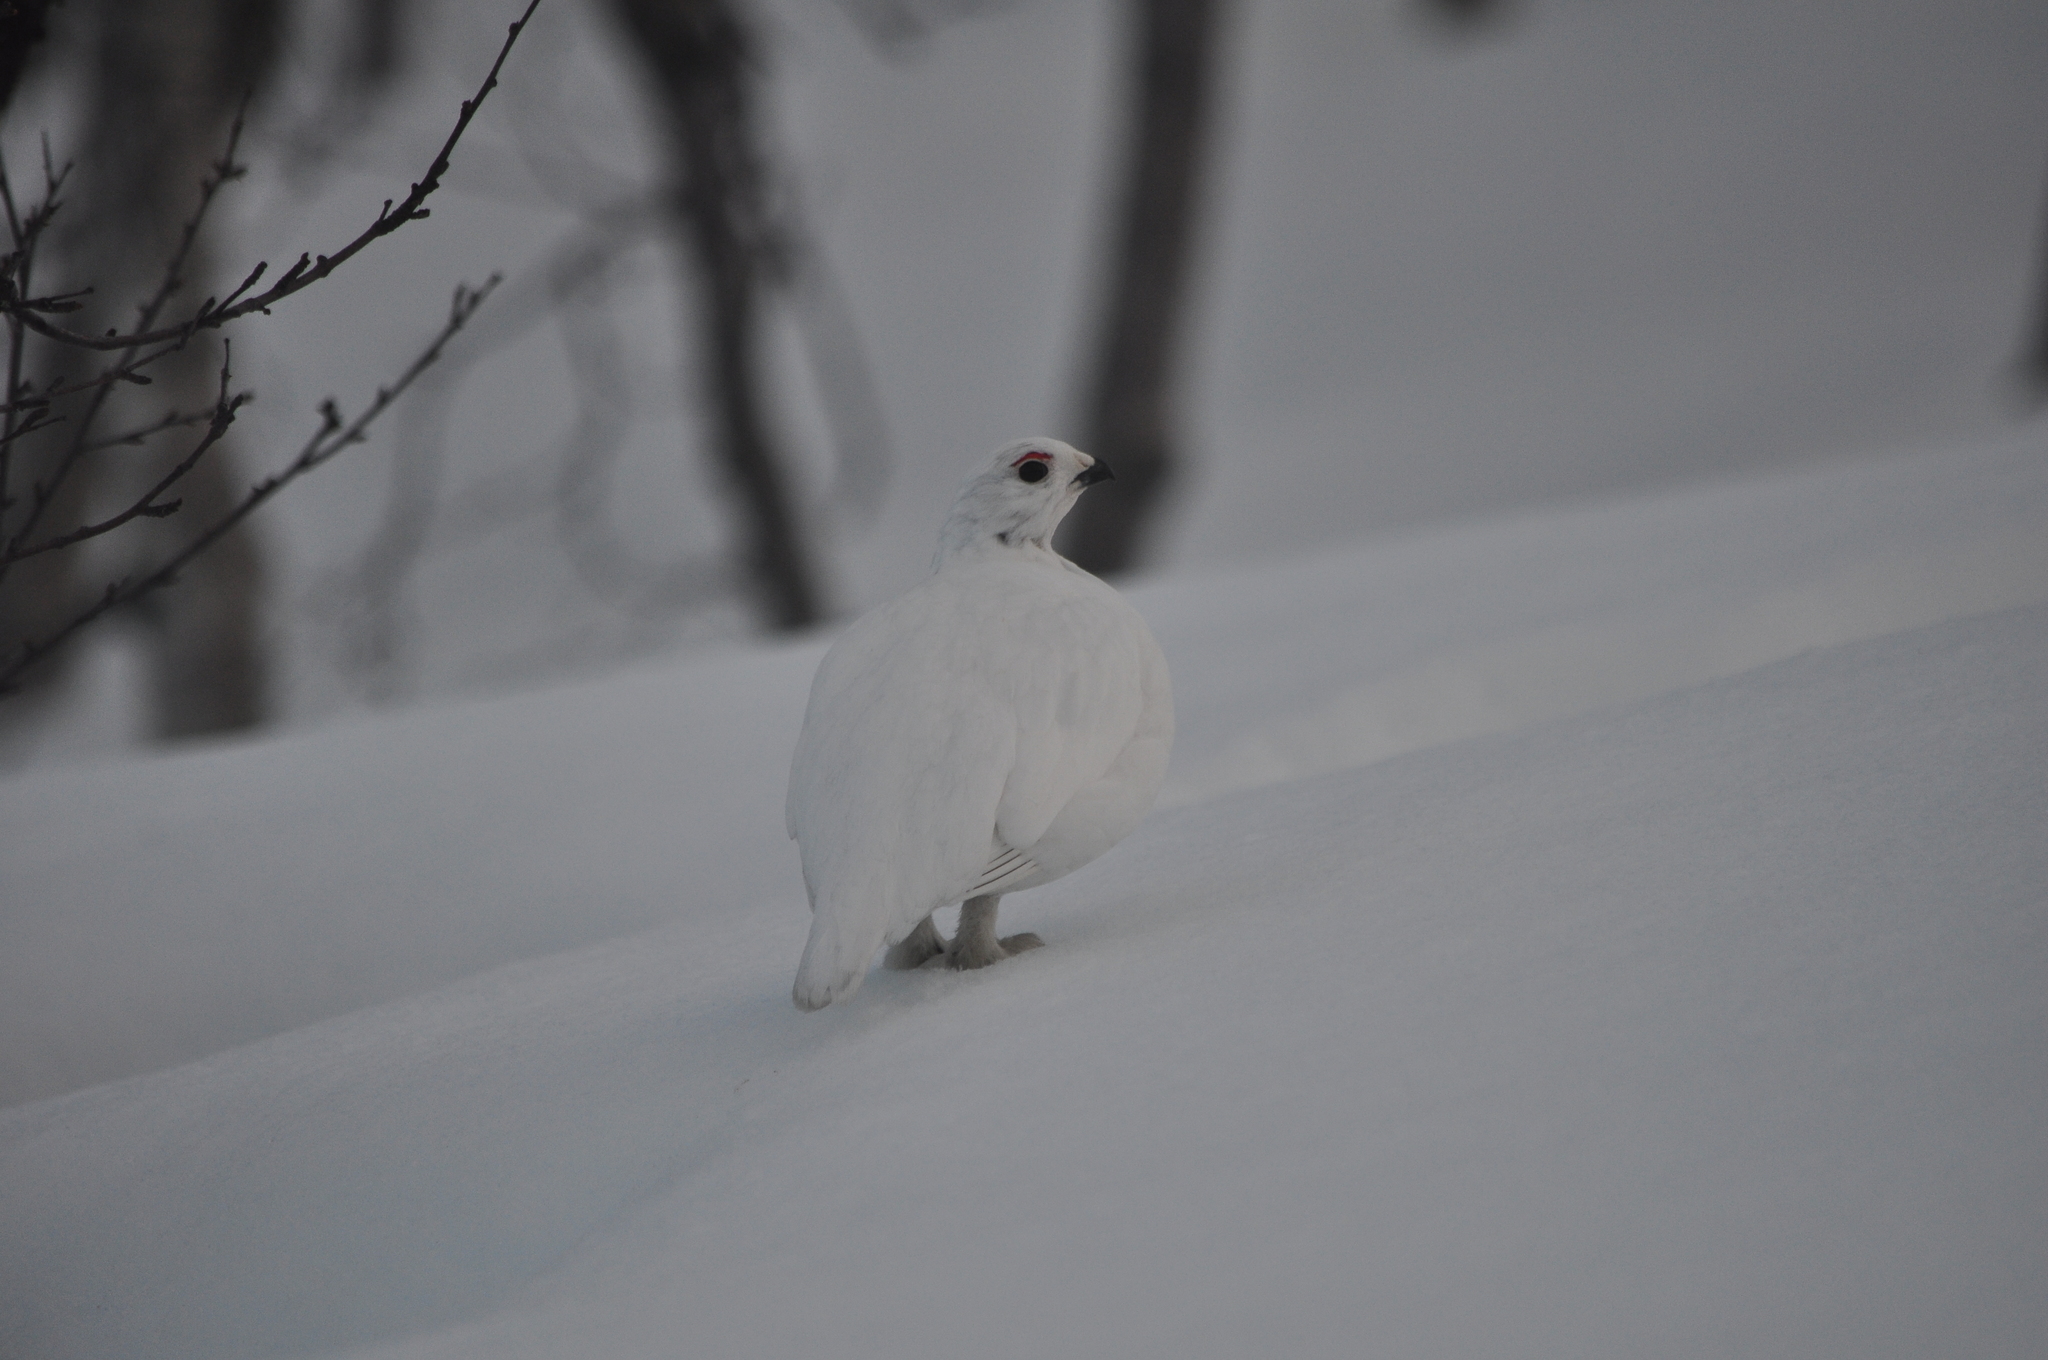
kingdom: Animalia
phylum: Chordata
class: Aves
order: Galliformes
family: Phasianidae
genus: Lagopus
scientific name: Lagopus lagopus
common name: Willow ptarmigan
